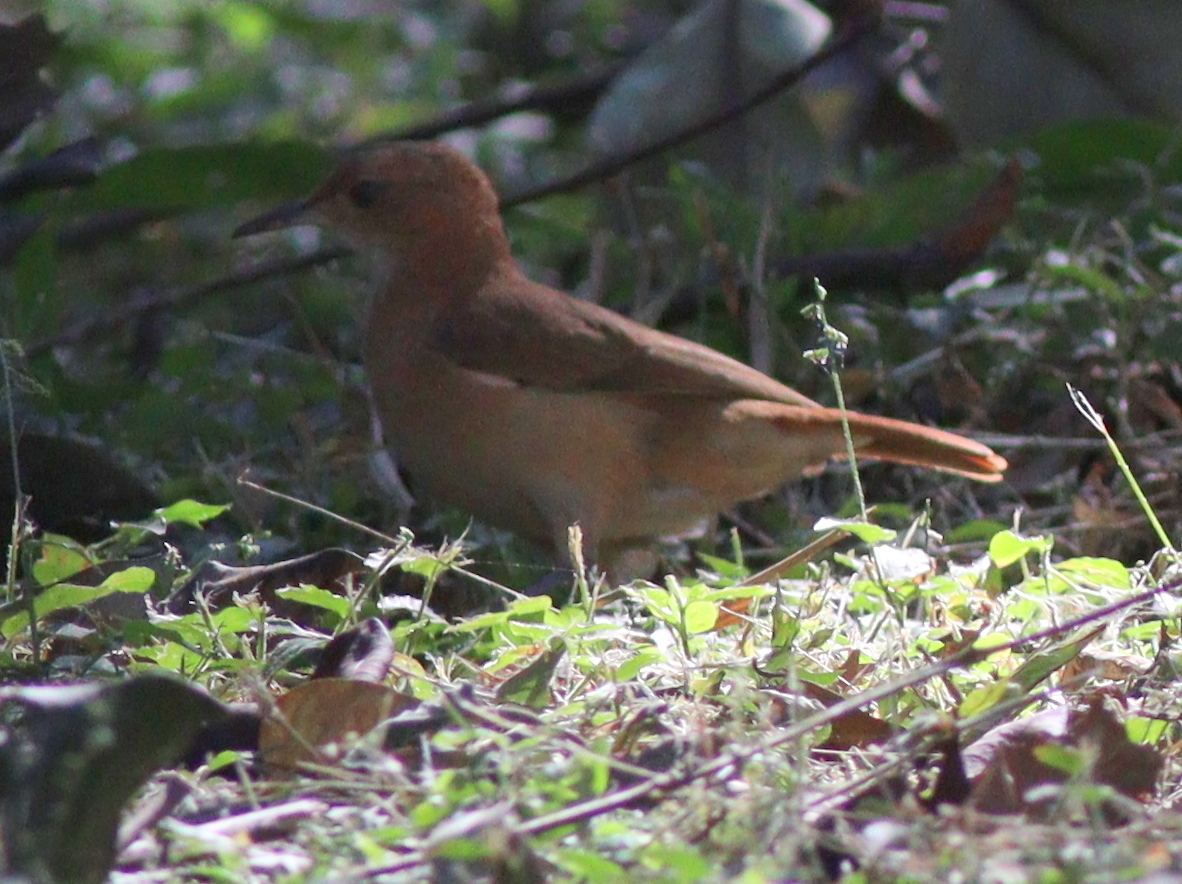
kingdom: Animalia
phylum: Chordata
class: Aves
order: Passeriformes
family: Furnariidae
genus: Furnarius
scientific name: Furnarius rufus
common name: Rufous hornero
